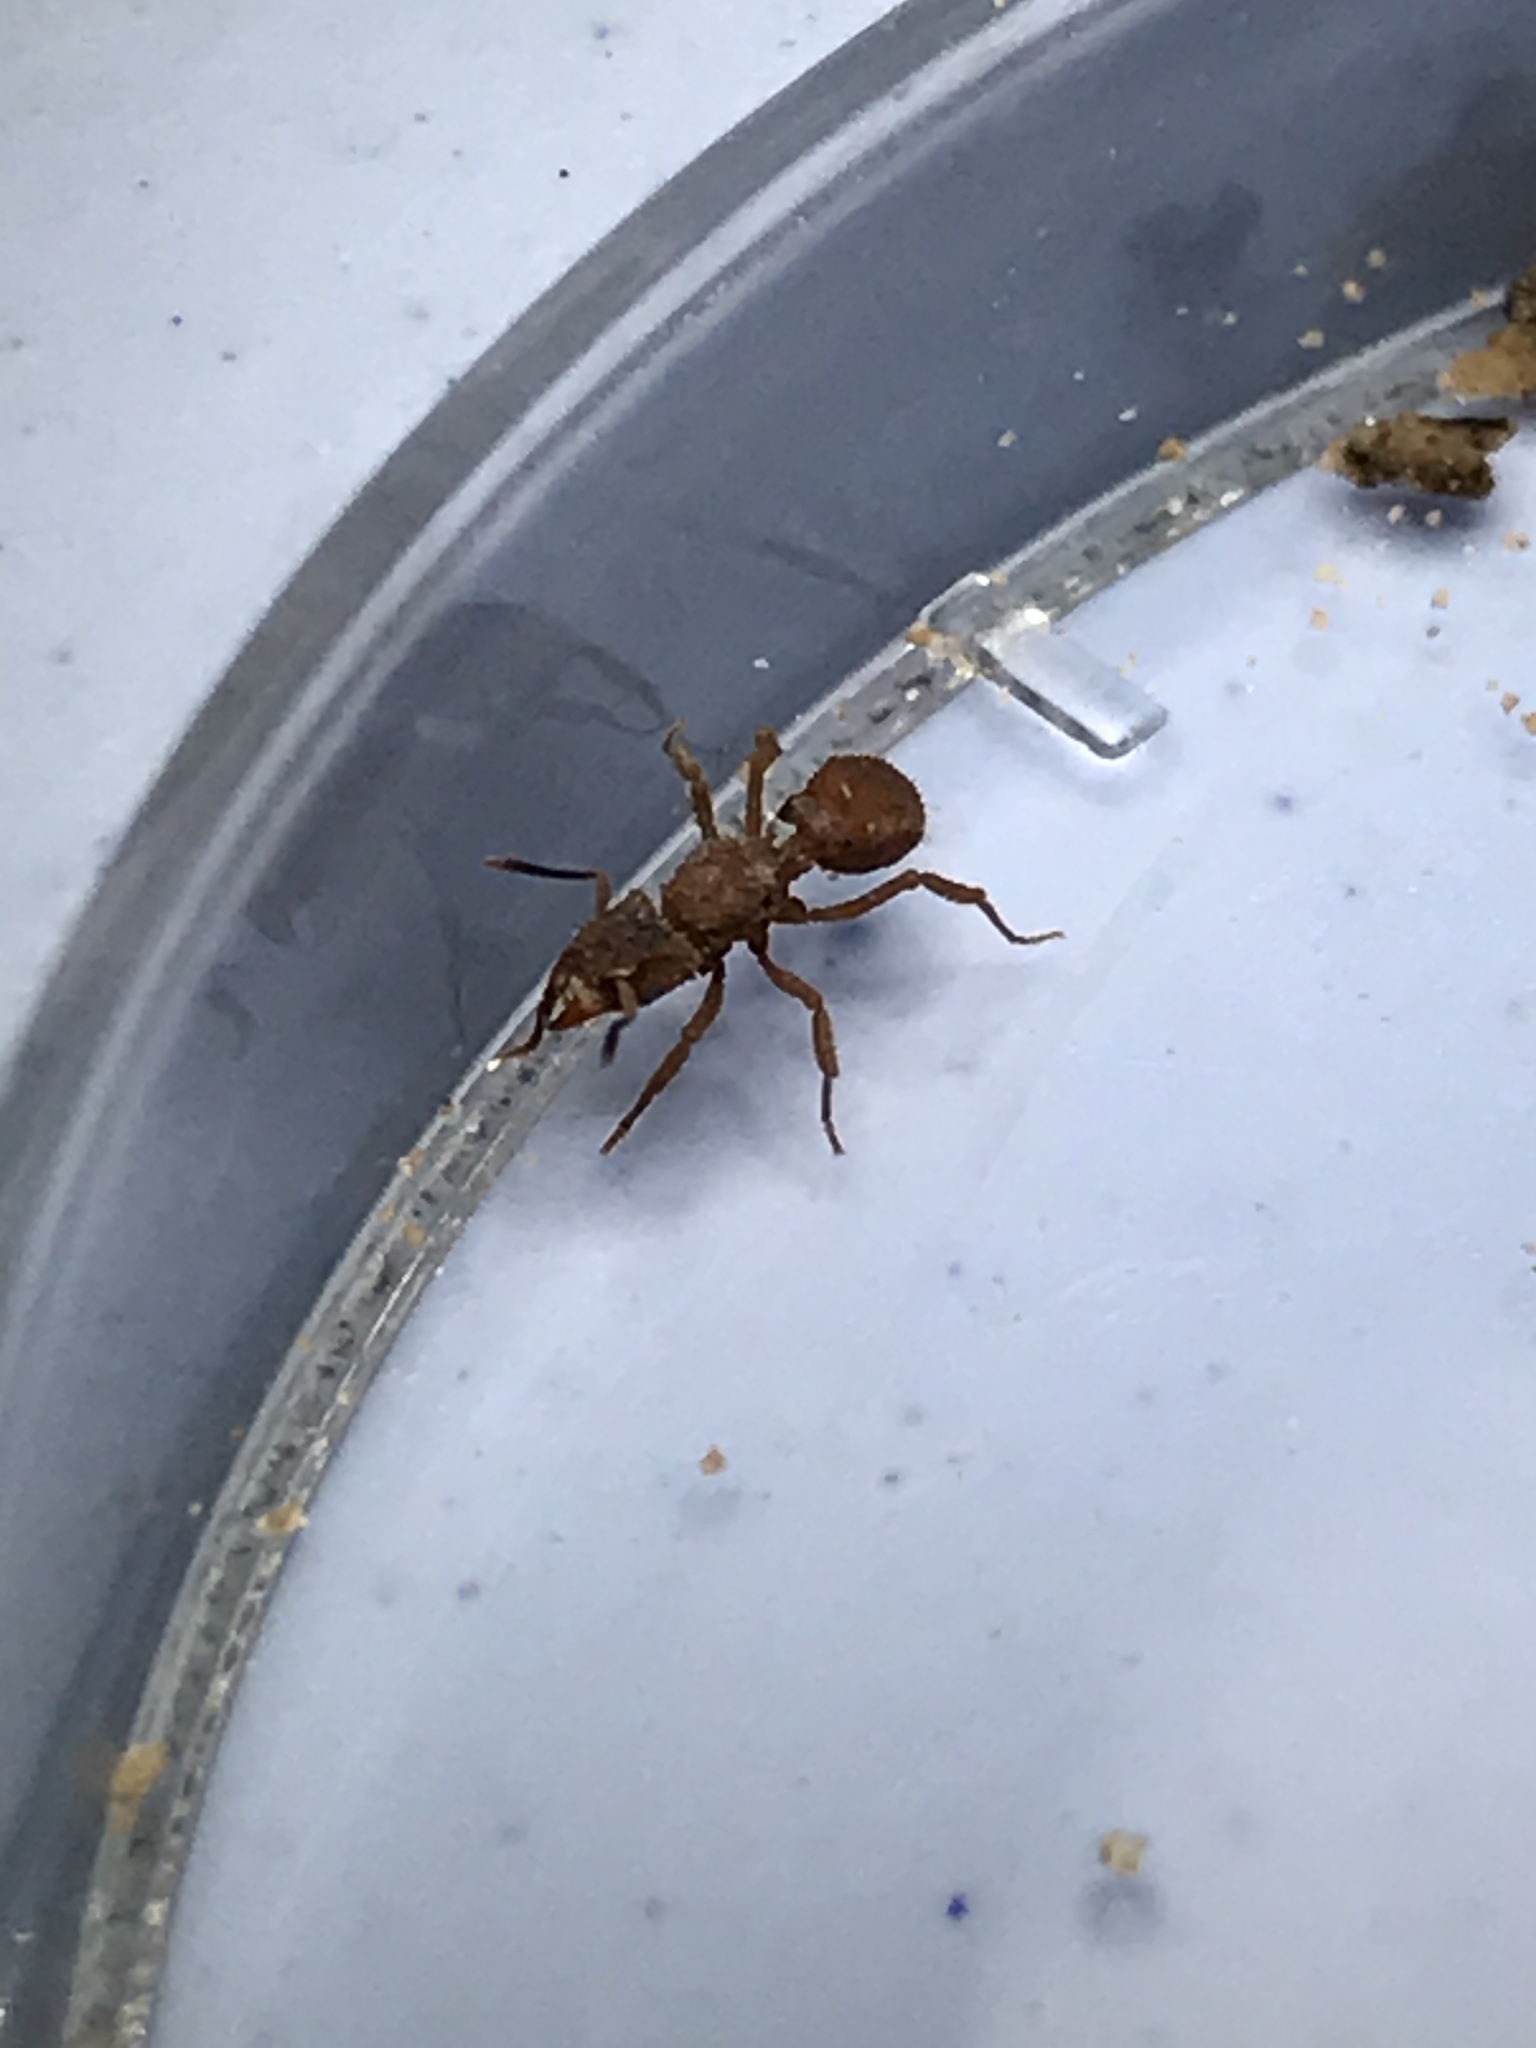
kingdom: Animalia
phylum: Arthropoda
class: Insecta
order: Hymenoptera
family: Formicidae
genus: Mycetomoellerius
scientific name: Mycetomoellerius
